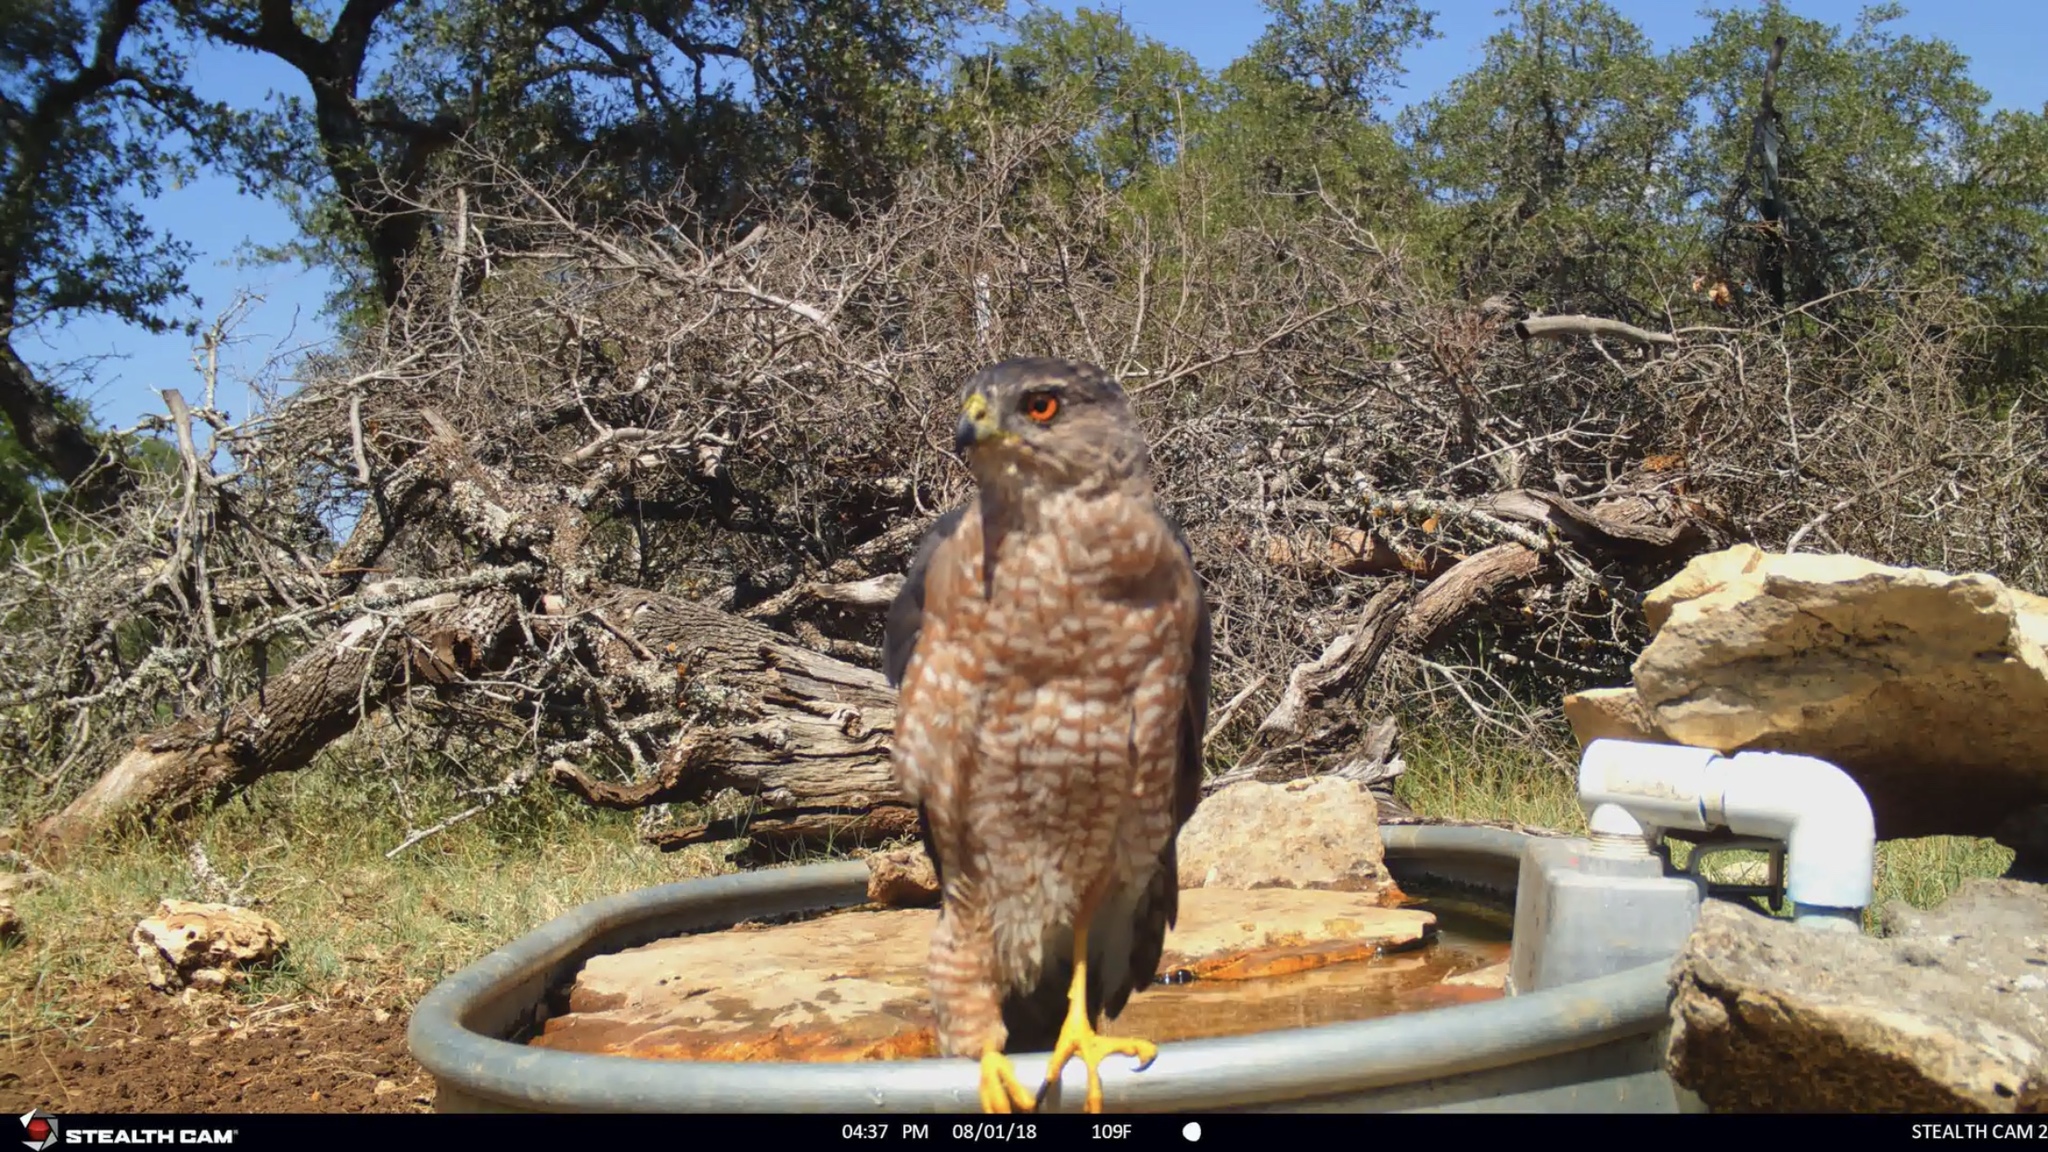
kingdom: Animalia
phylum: Chordata
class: Aves
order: Accipitriformes
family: Accipitridae
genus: Accipiter
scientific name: Accipiter cooperii
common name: Cooper's hawk
